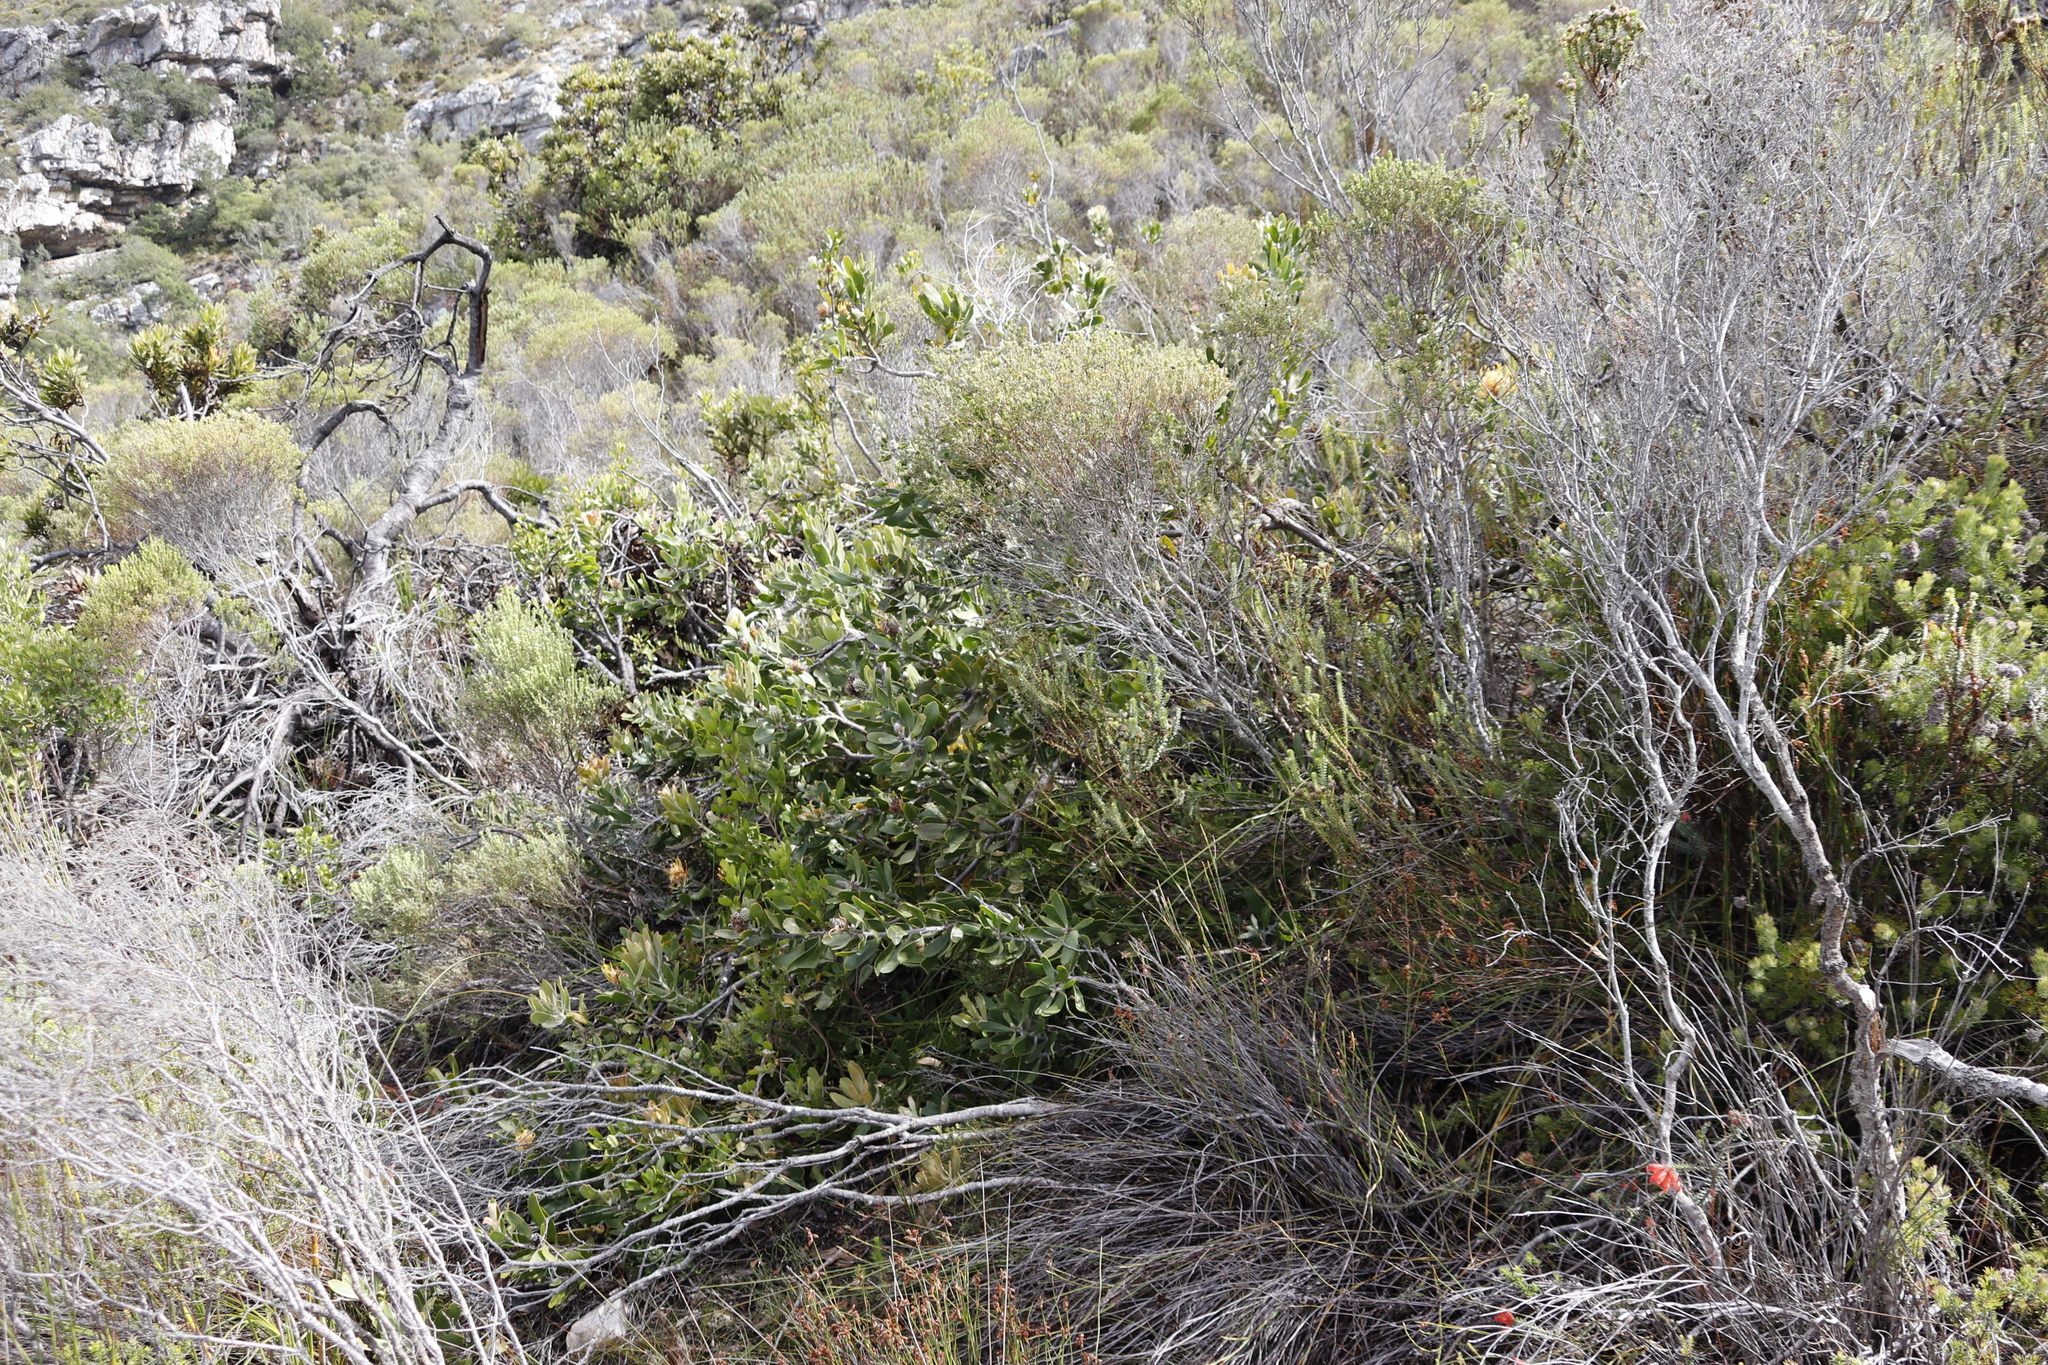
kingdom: Plantae
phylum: Tracheophyta
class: Magnoliopsida
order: Proteales
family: Proteaceae
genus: Leucospermum
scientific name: Leucospermum cuneiforme
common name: Common pincushion
